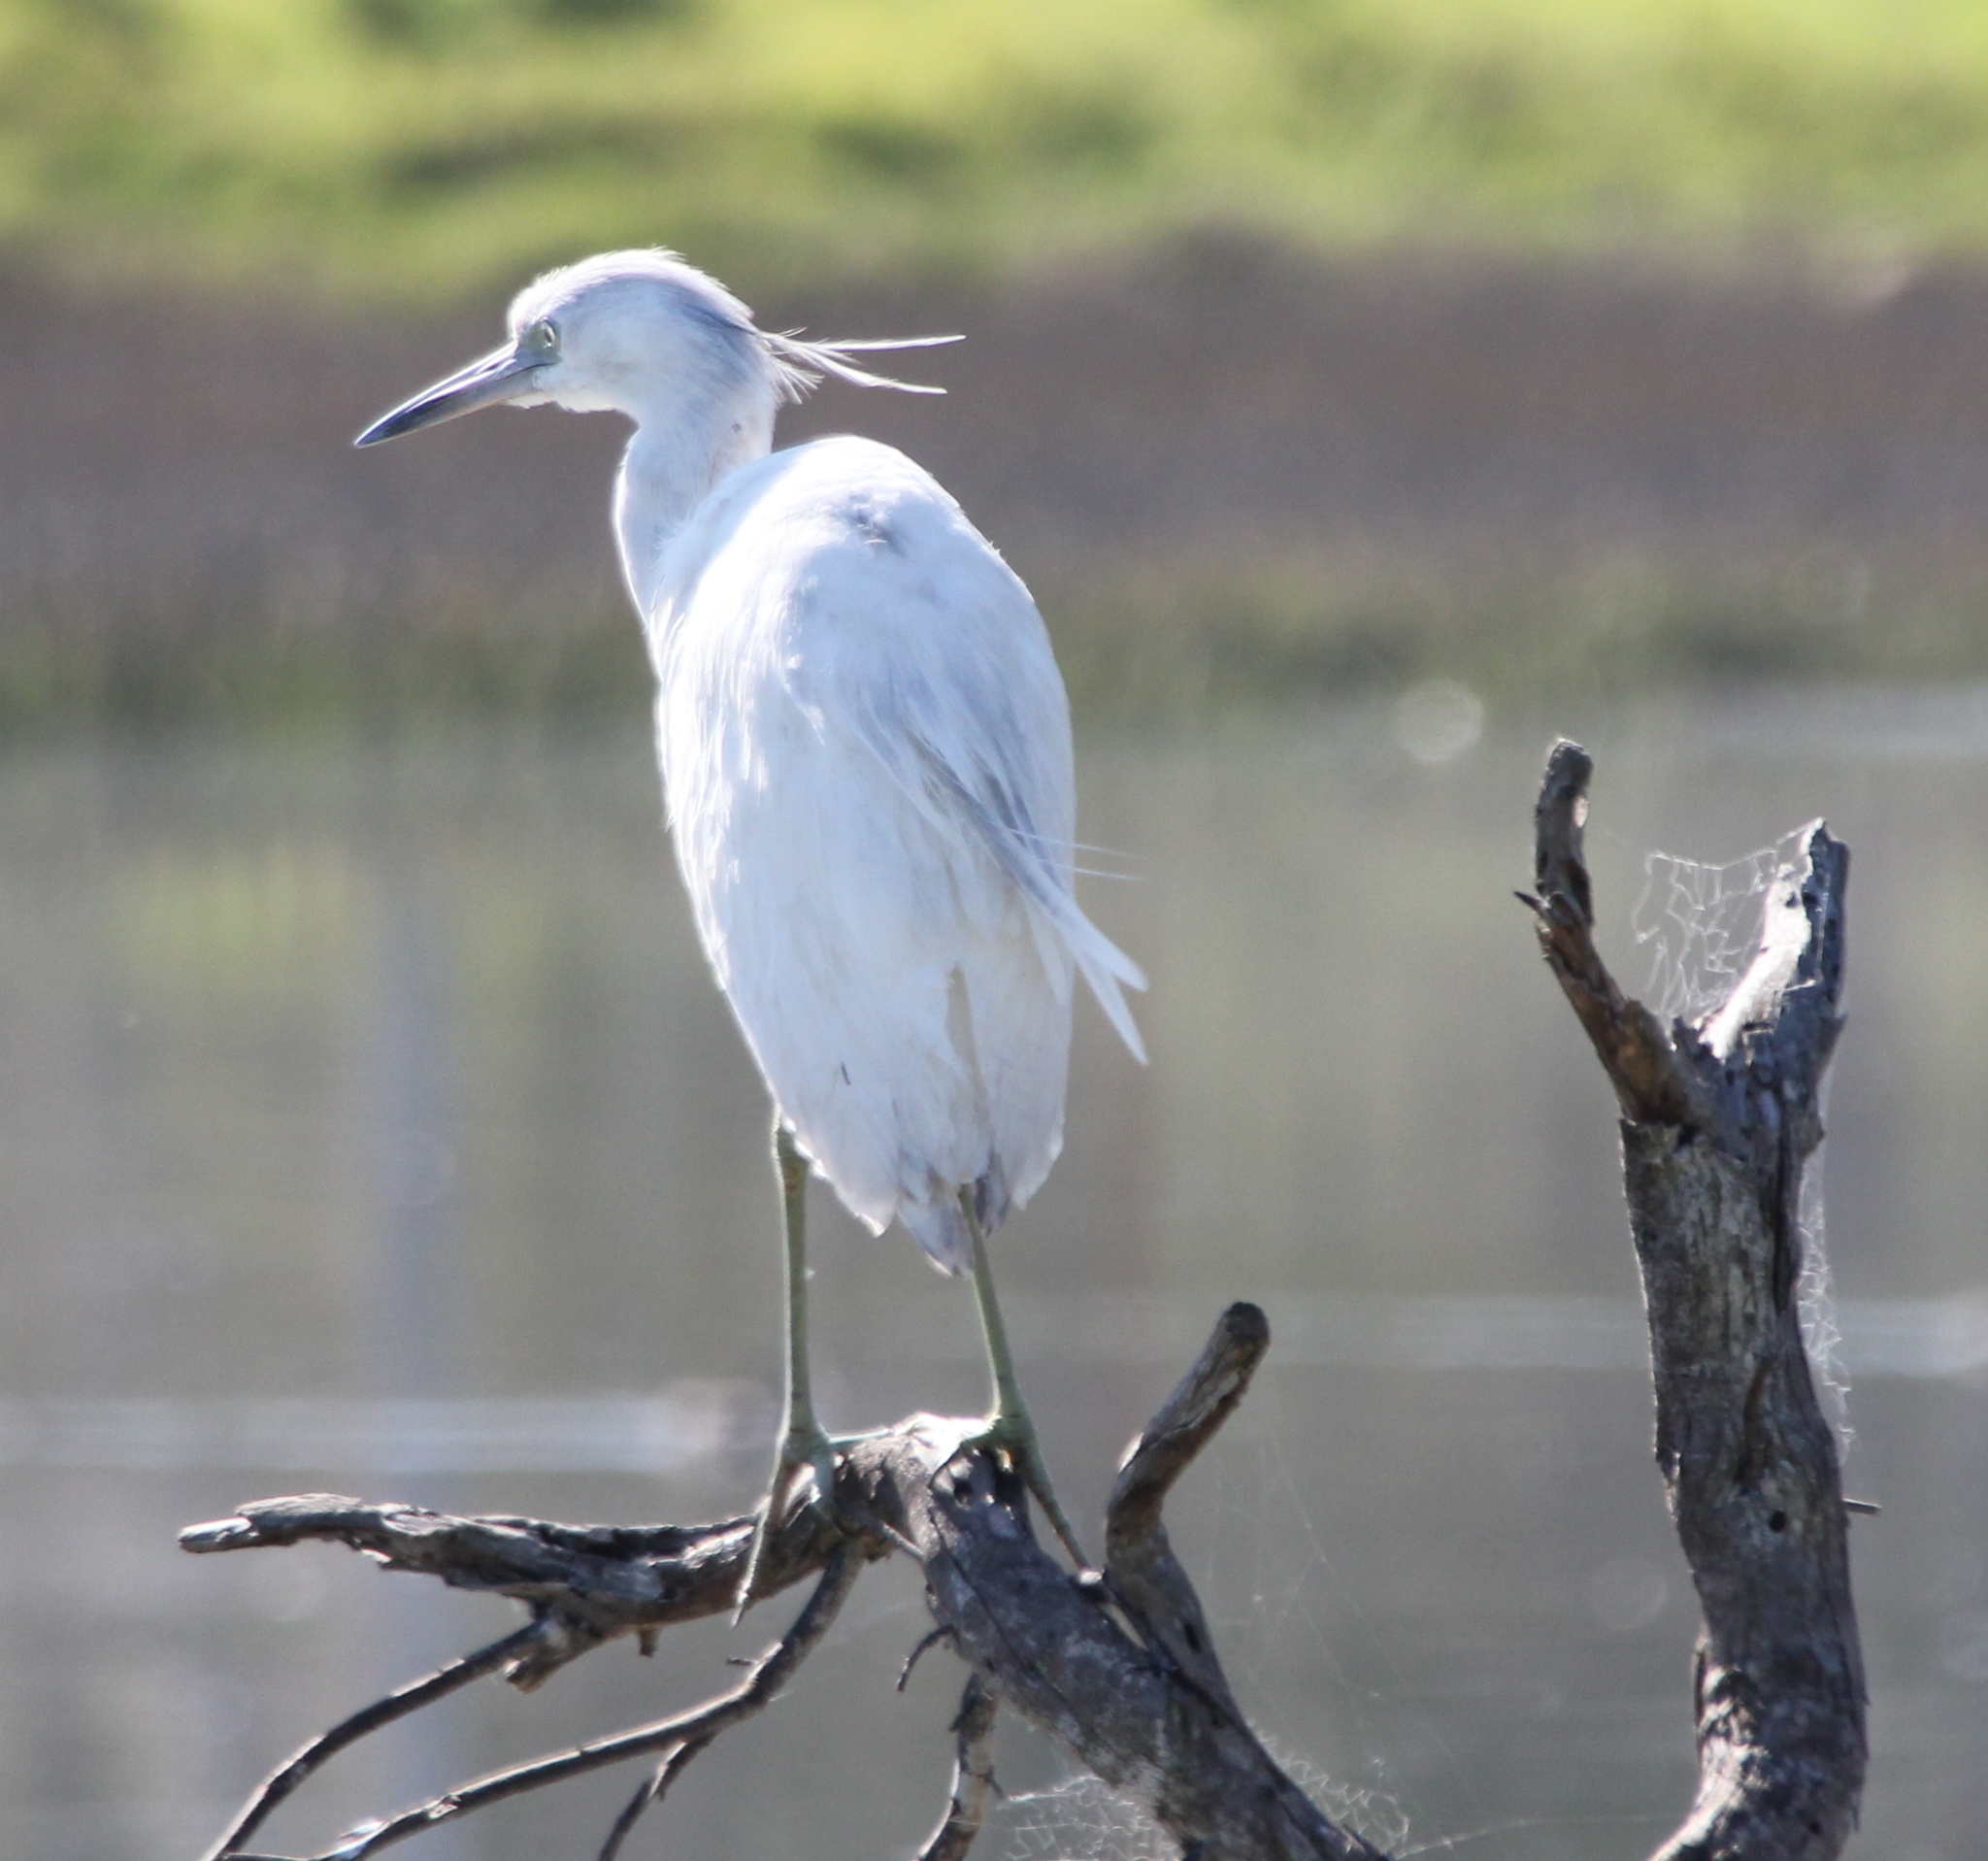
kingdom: Animalia
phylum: Chordata
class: Aves
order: Pelecaniformes
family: Ardeidae
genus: Egretta
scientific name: Egretta caerulea
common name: Little blue heron
